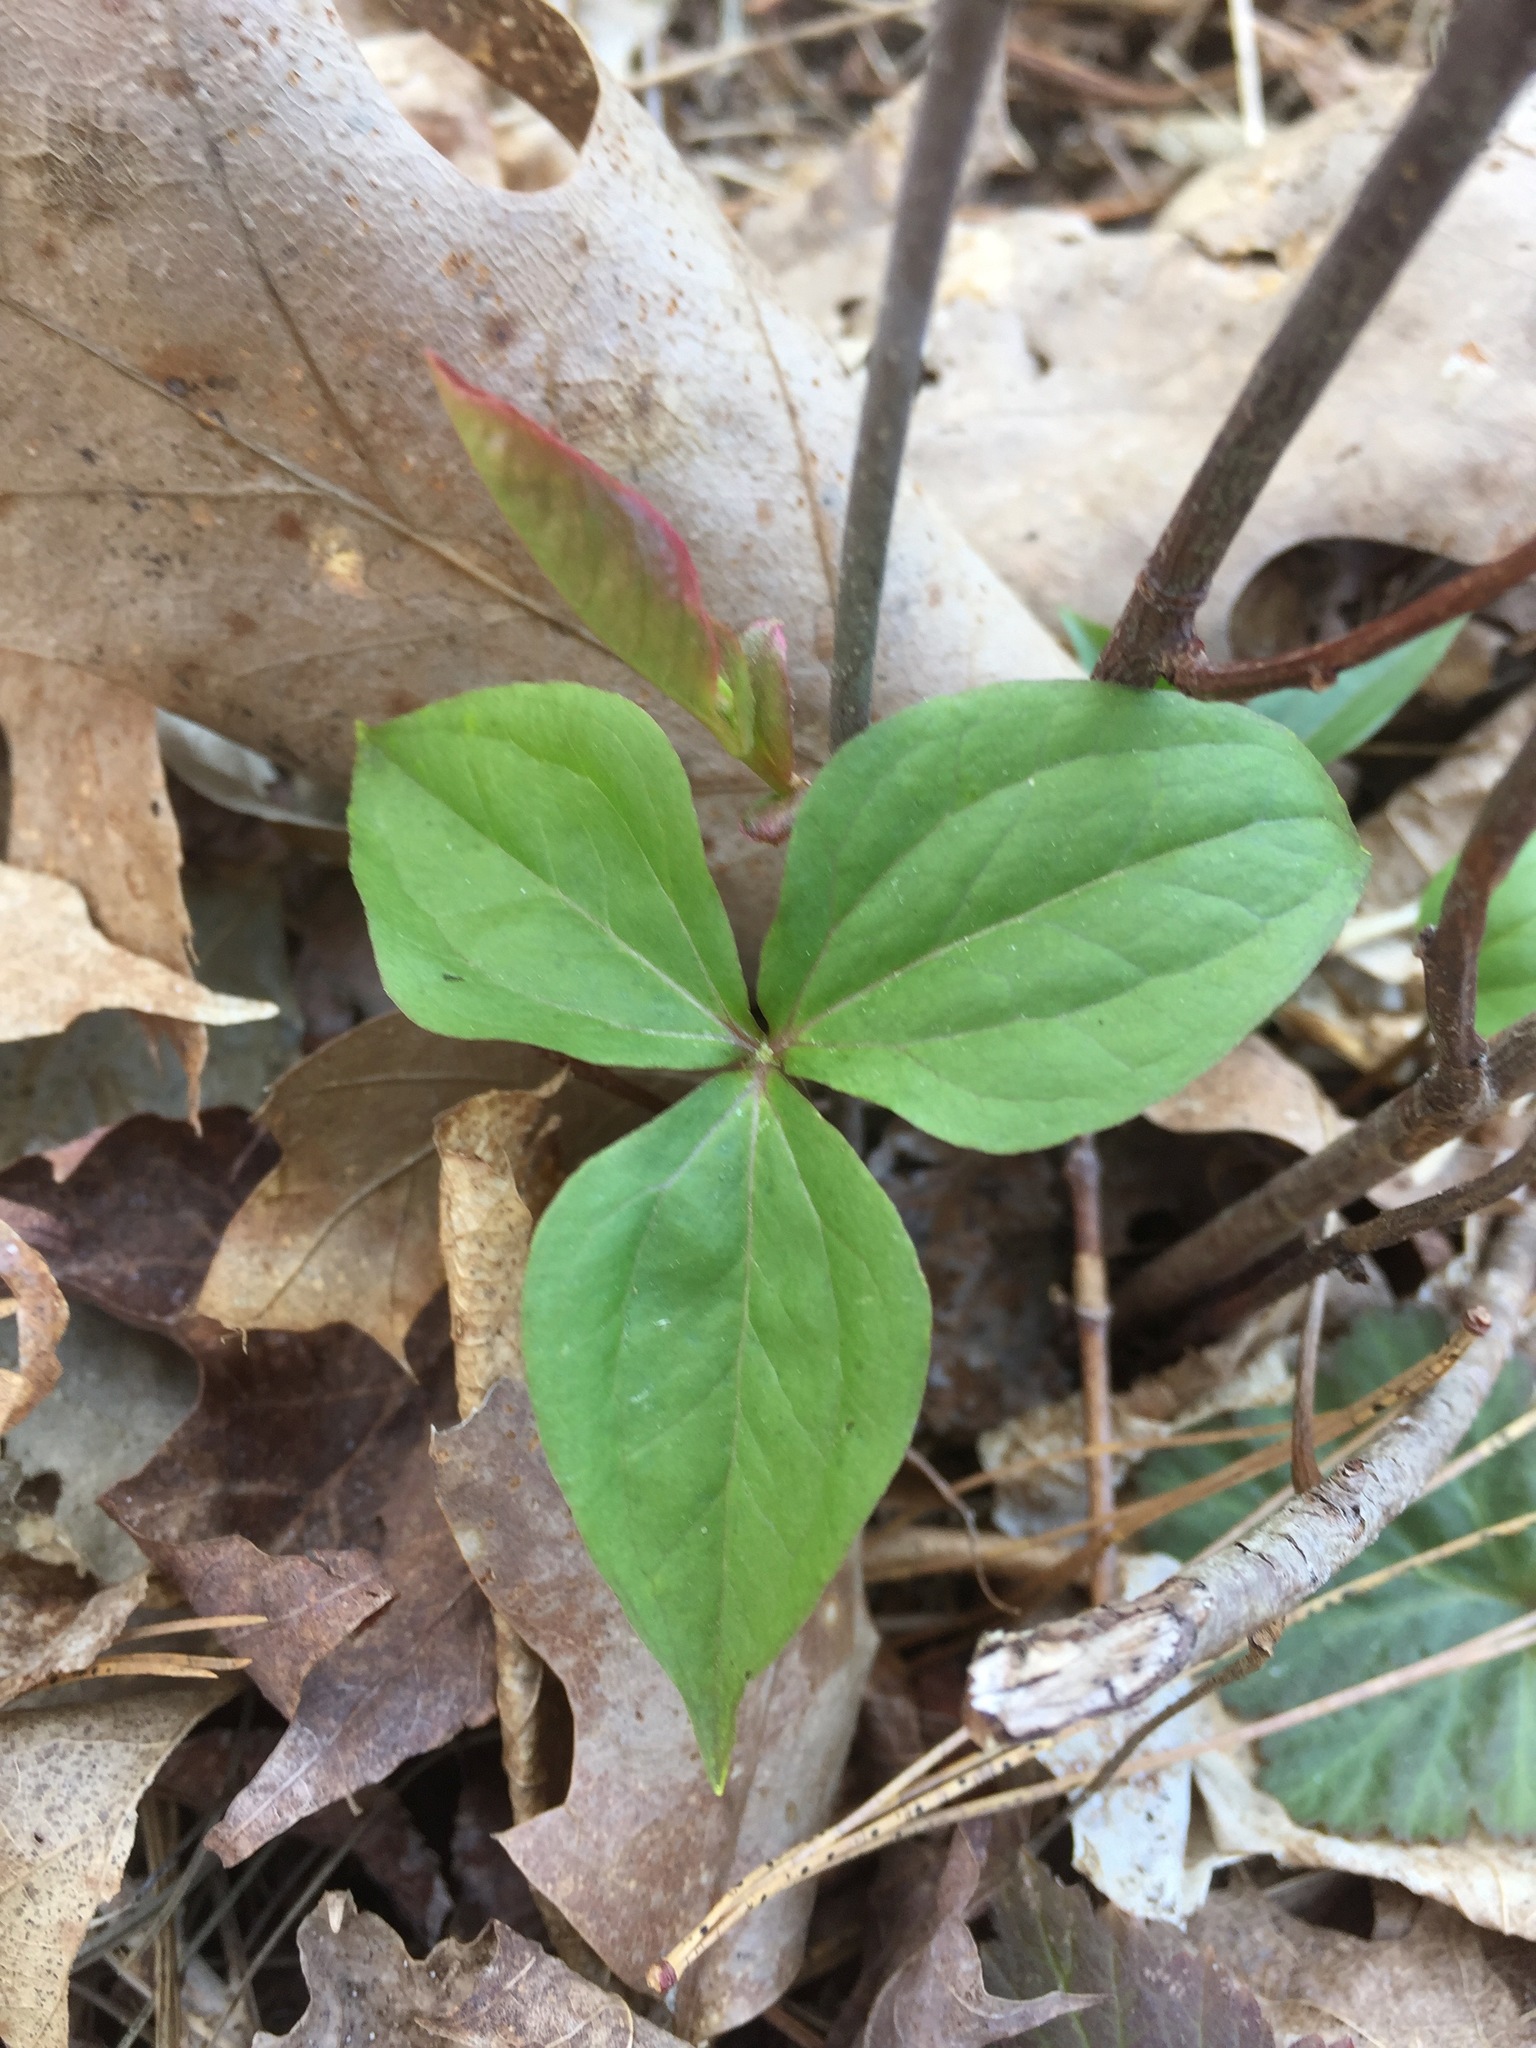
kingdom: Plantae
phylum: Tracheophyta
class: Liliopsida
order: Liliales
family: Melanthiaceae
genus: Trillium
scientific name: Trillium nivale
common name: Dwarf white trillium
